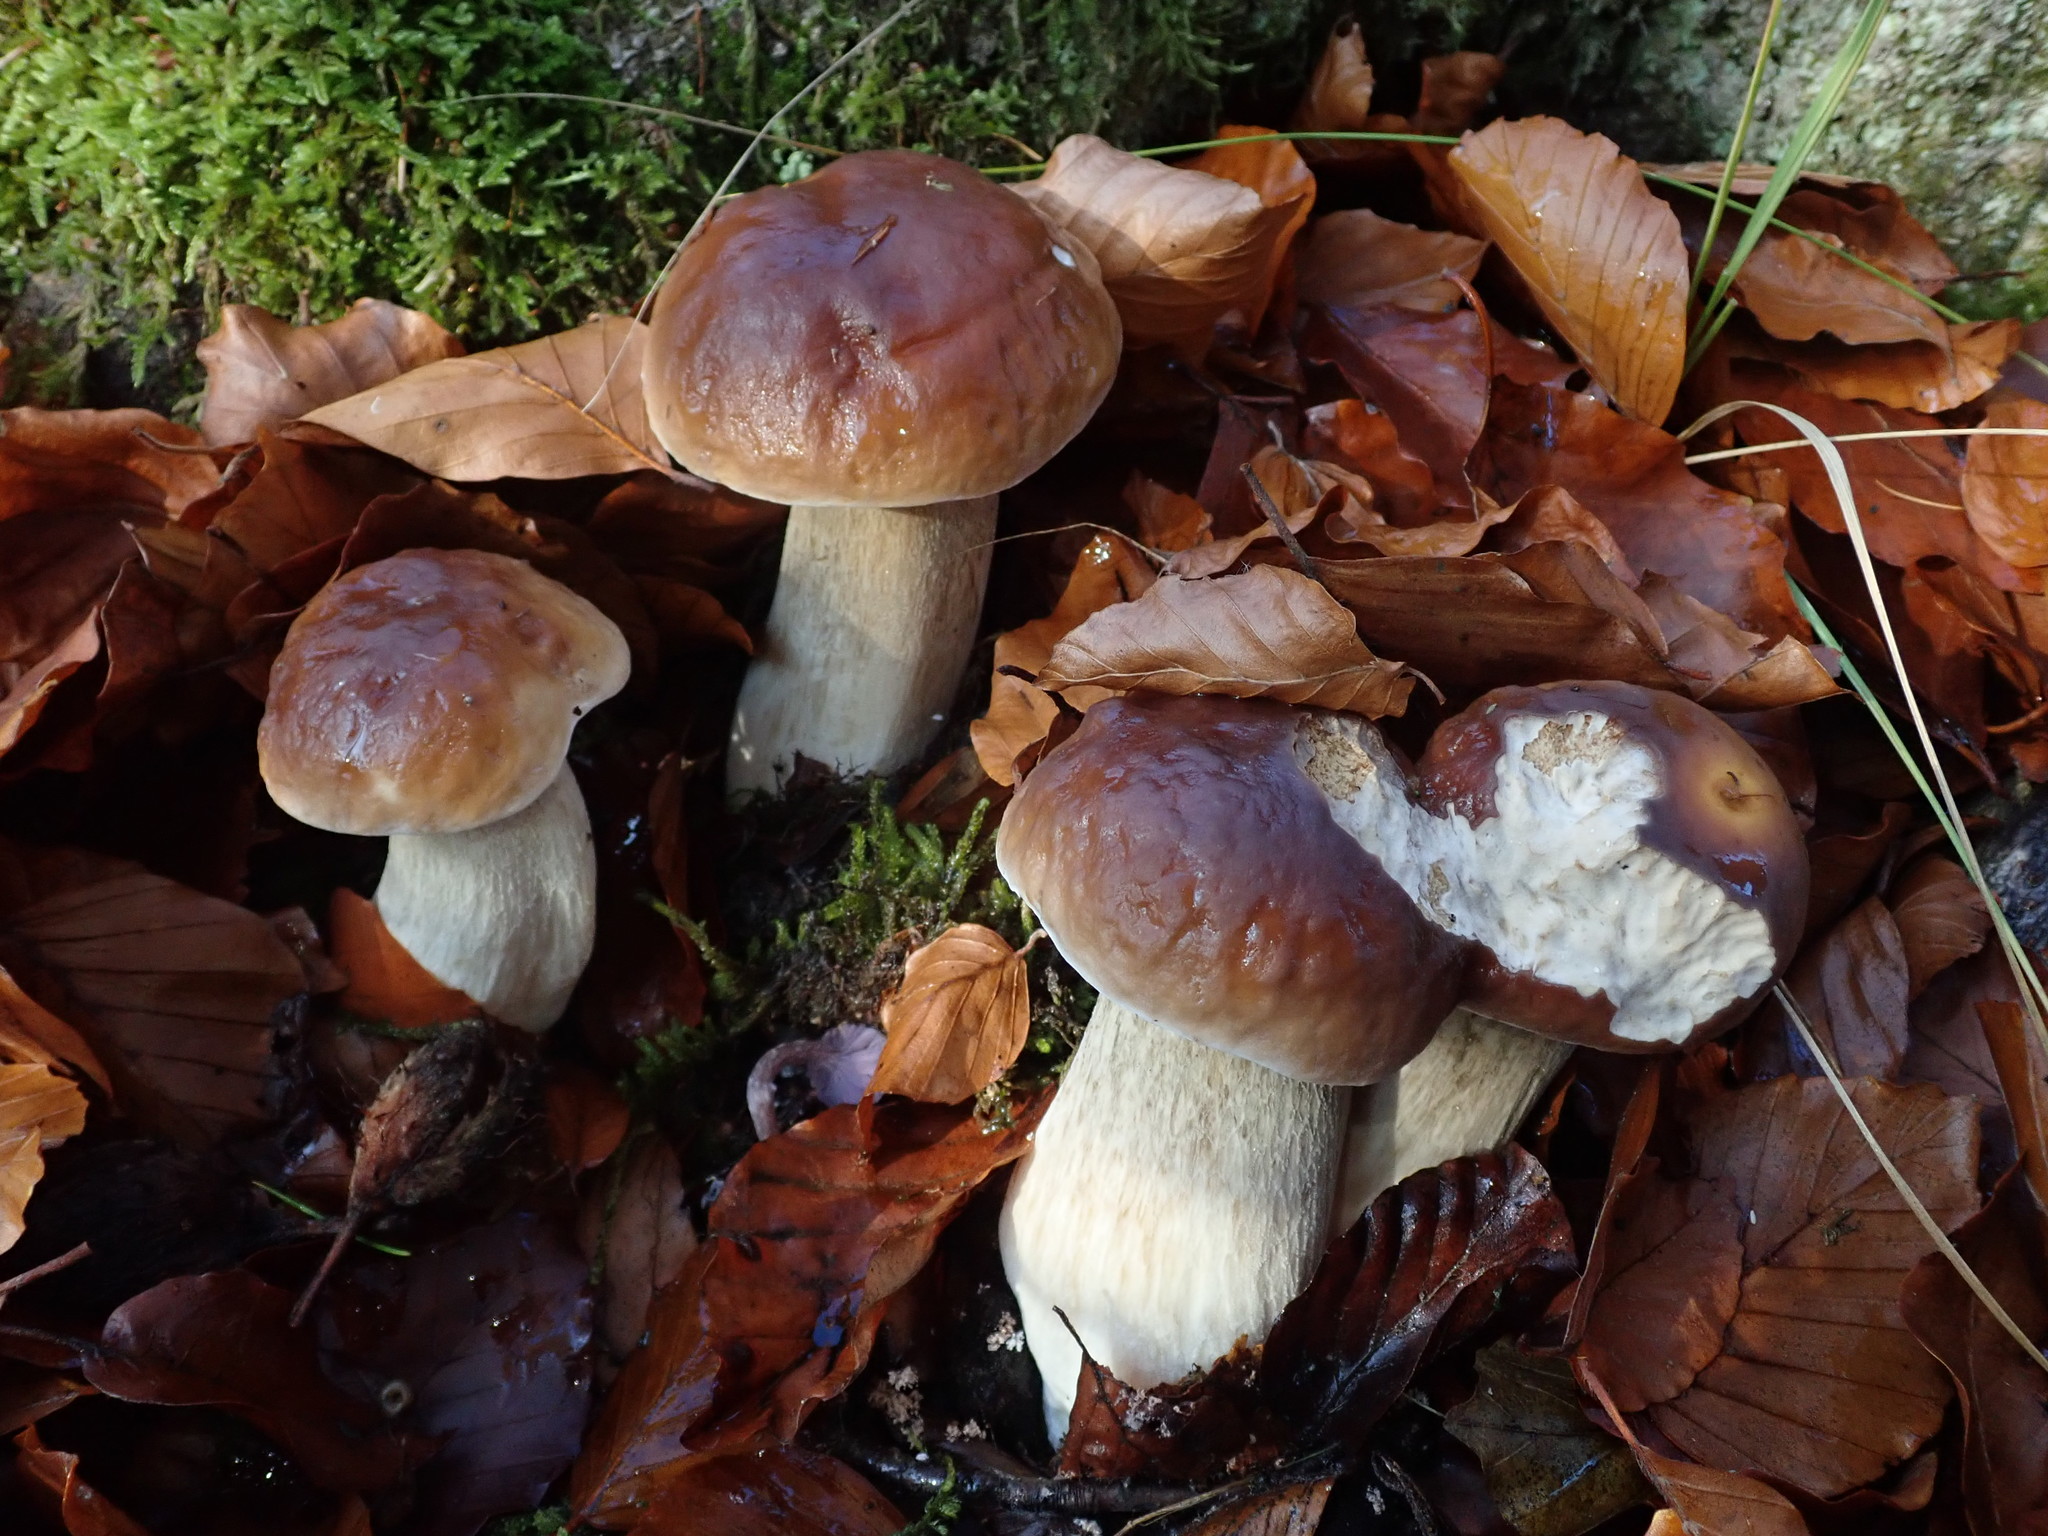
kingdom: Fungi
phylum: Basidiomycota
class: Agaricomycetes
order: Boletales
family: Boletaceae
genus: Boletus
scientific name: Boletus edulis
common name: Cep
